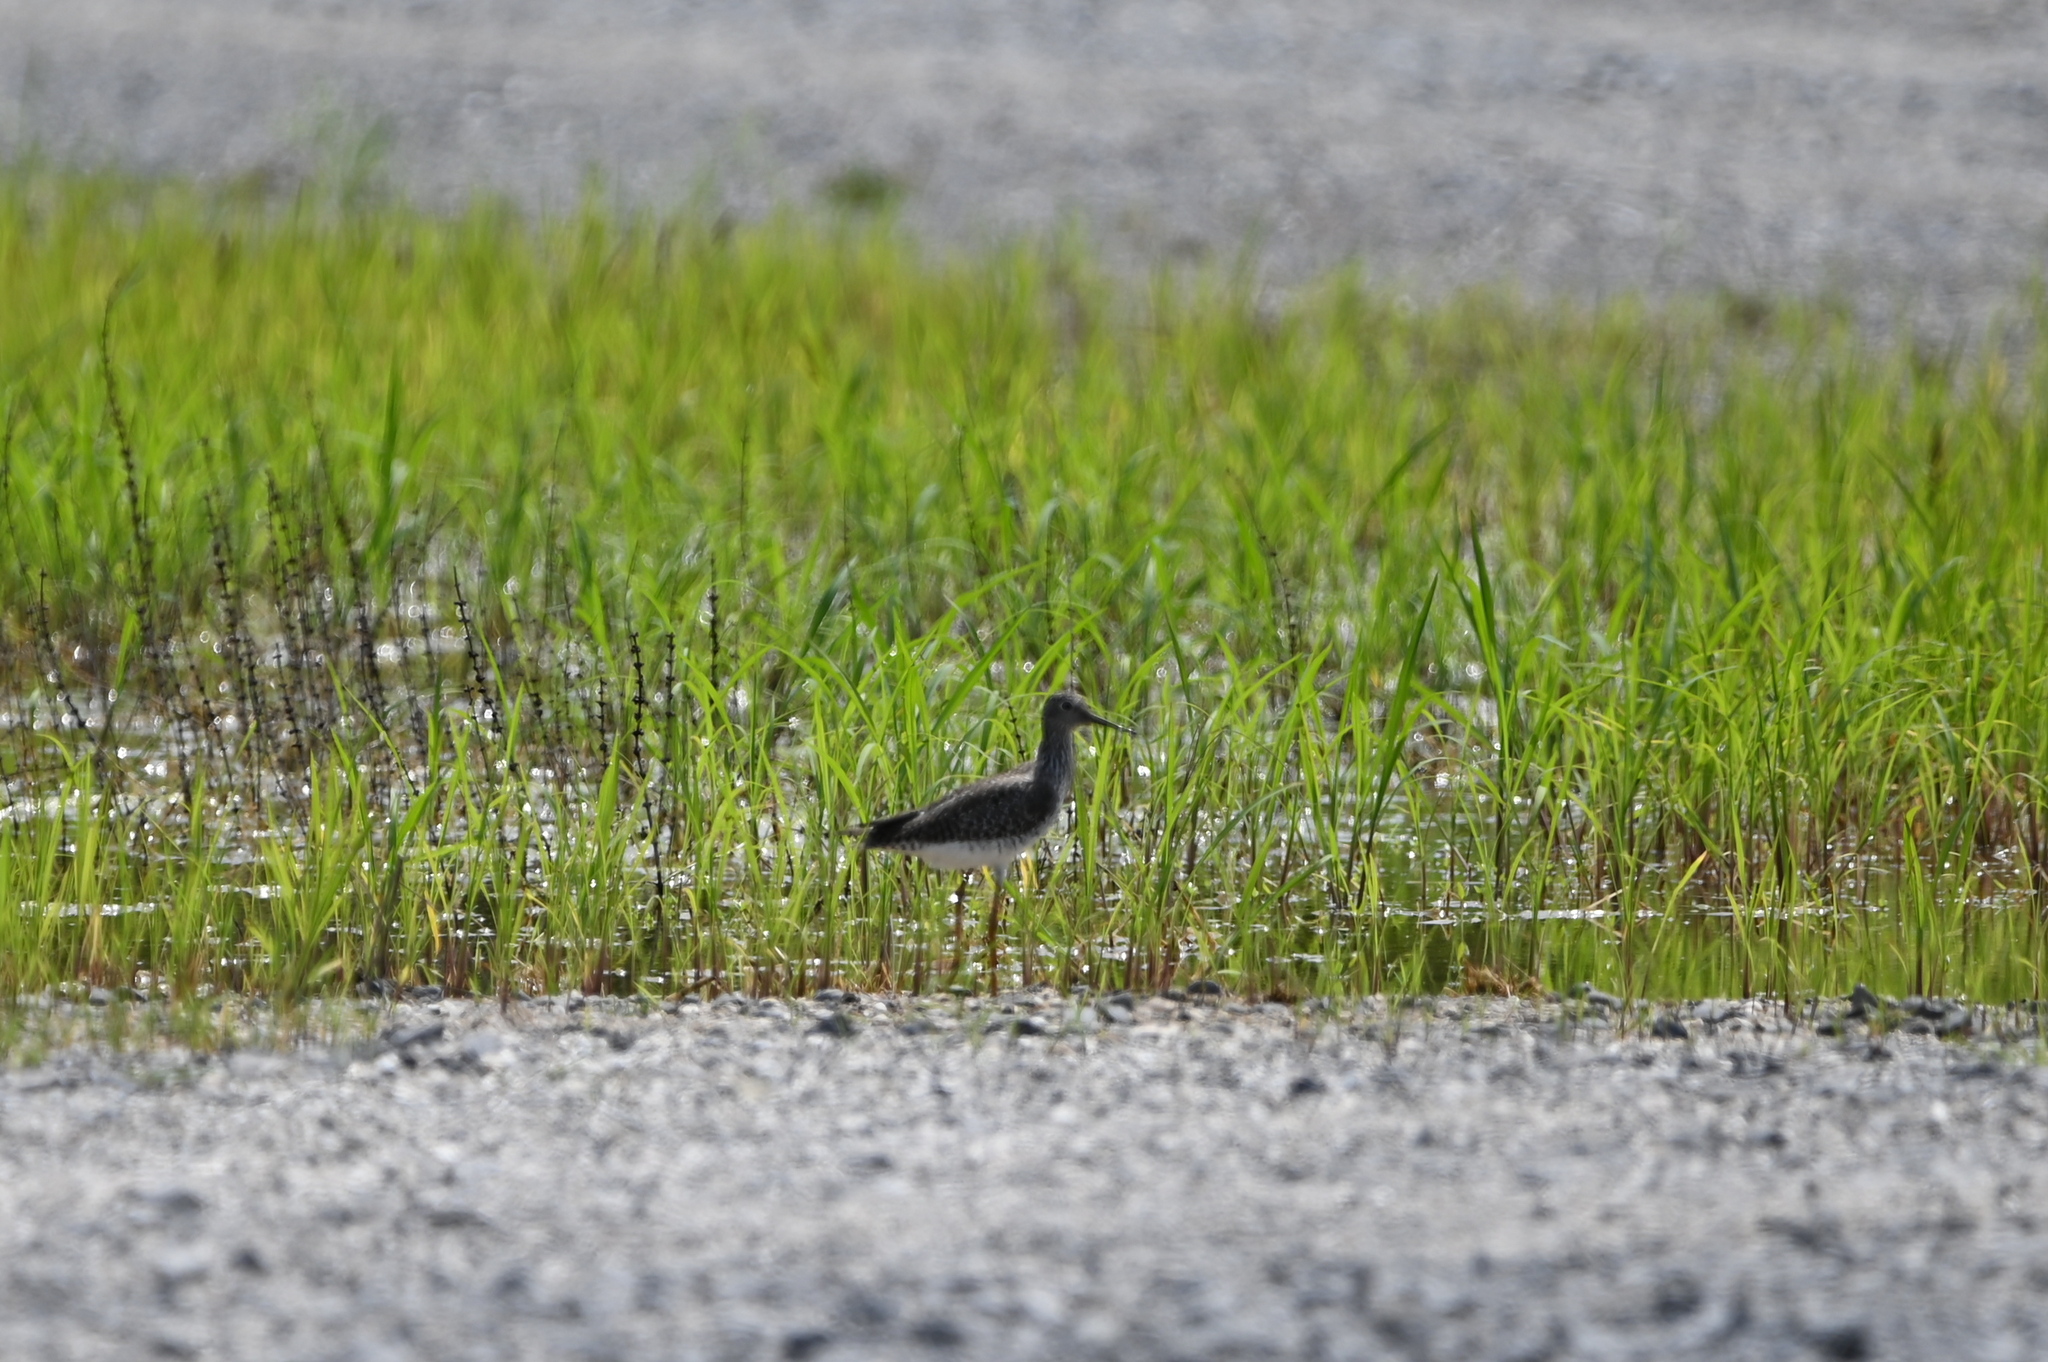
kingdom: Animalia
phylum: Chordata
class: Aves
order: Charadriiformes
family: Scolopacidae
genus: Tringa
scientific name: Tringa solitaria
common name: Solitary sandpiper
